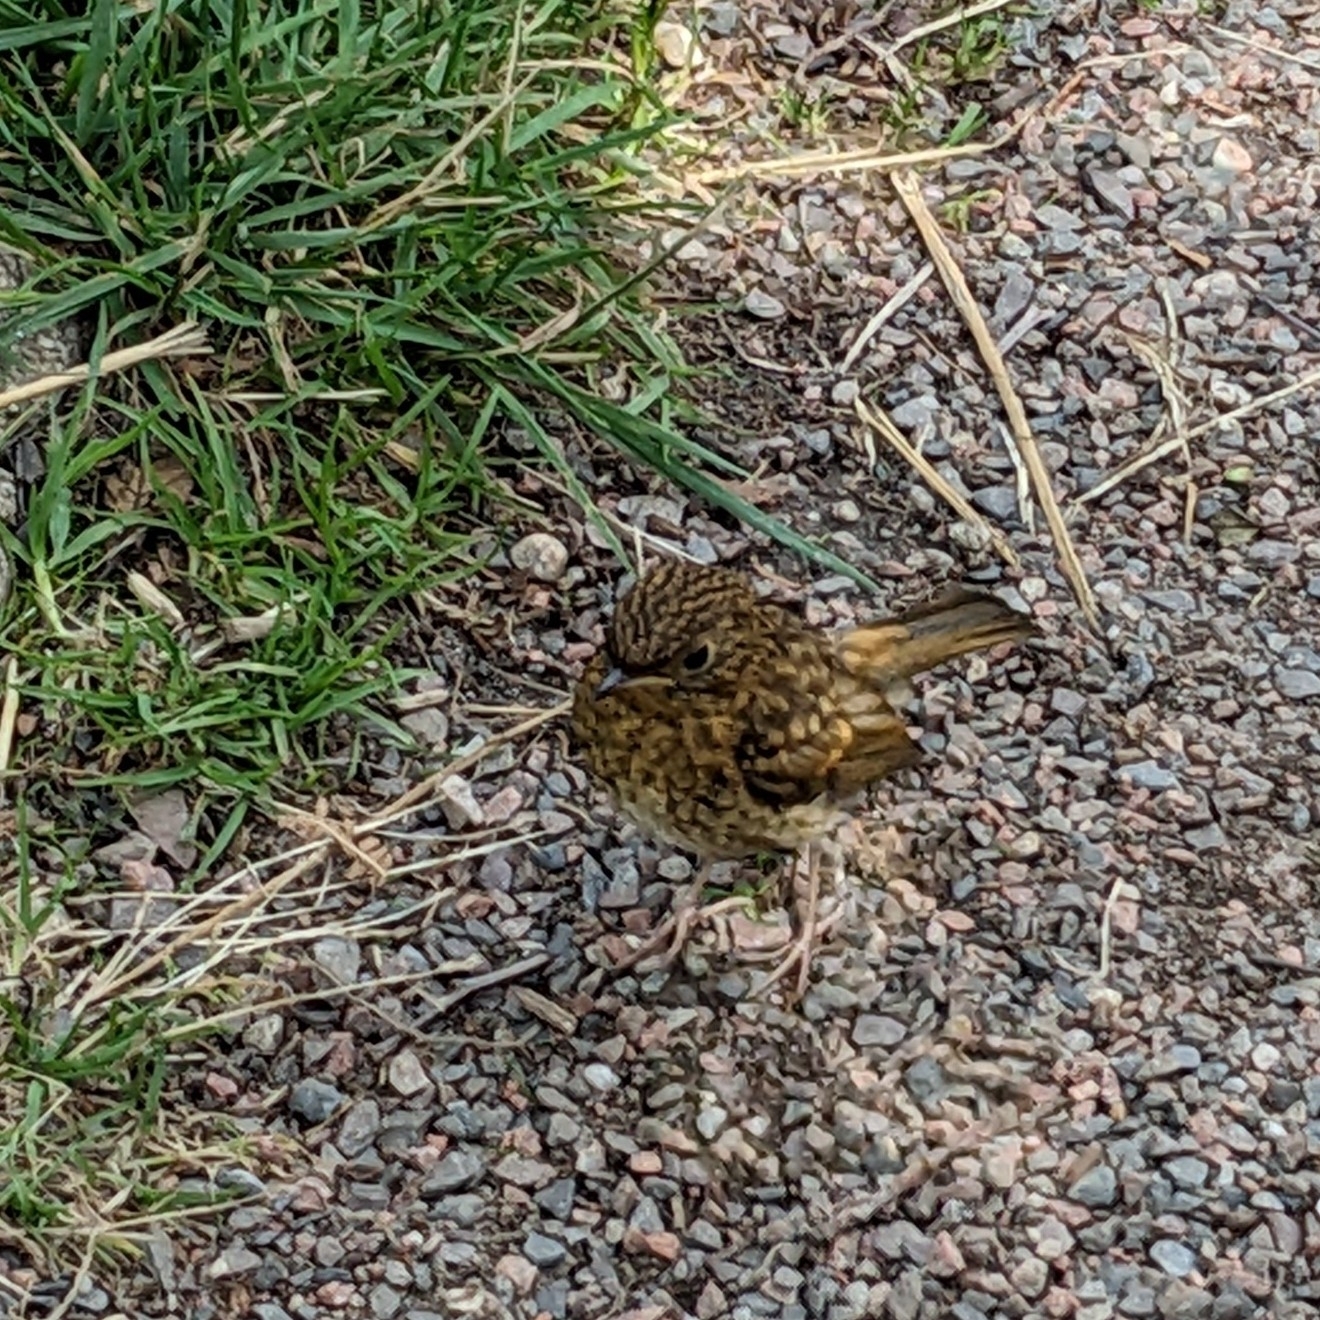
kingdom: Animalia
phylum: Chordata
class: Aves
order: Passeriformes
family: Muscicapidae
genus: Erithacus
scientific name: Erithacus rubecula
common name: European robin
